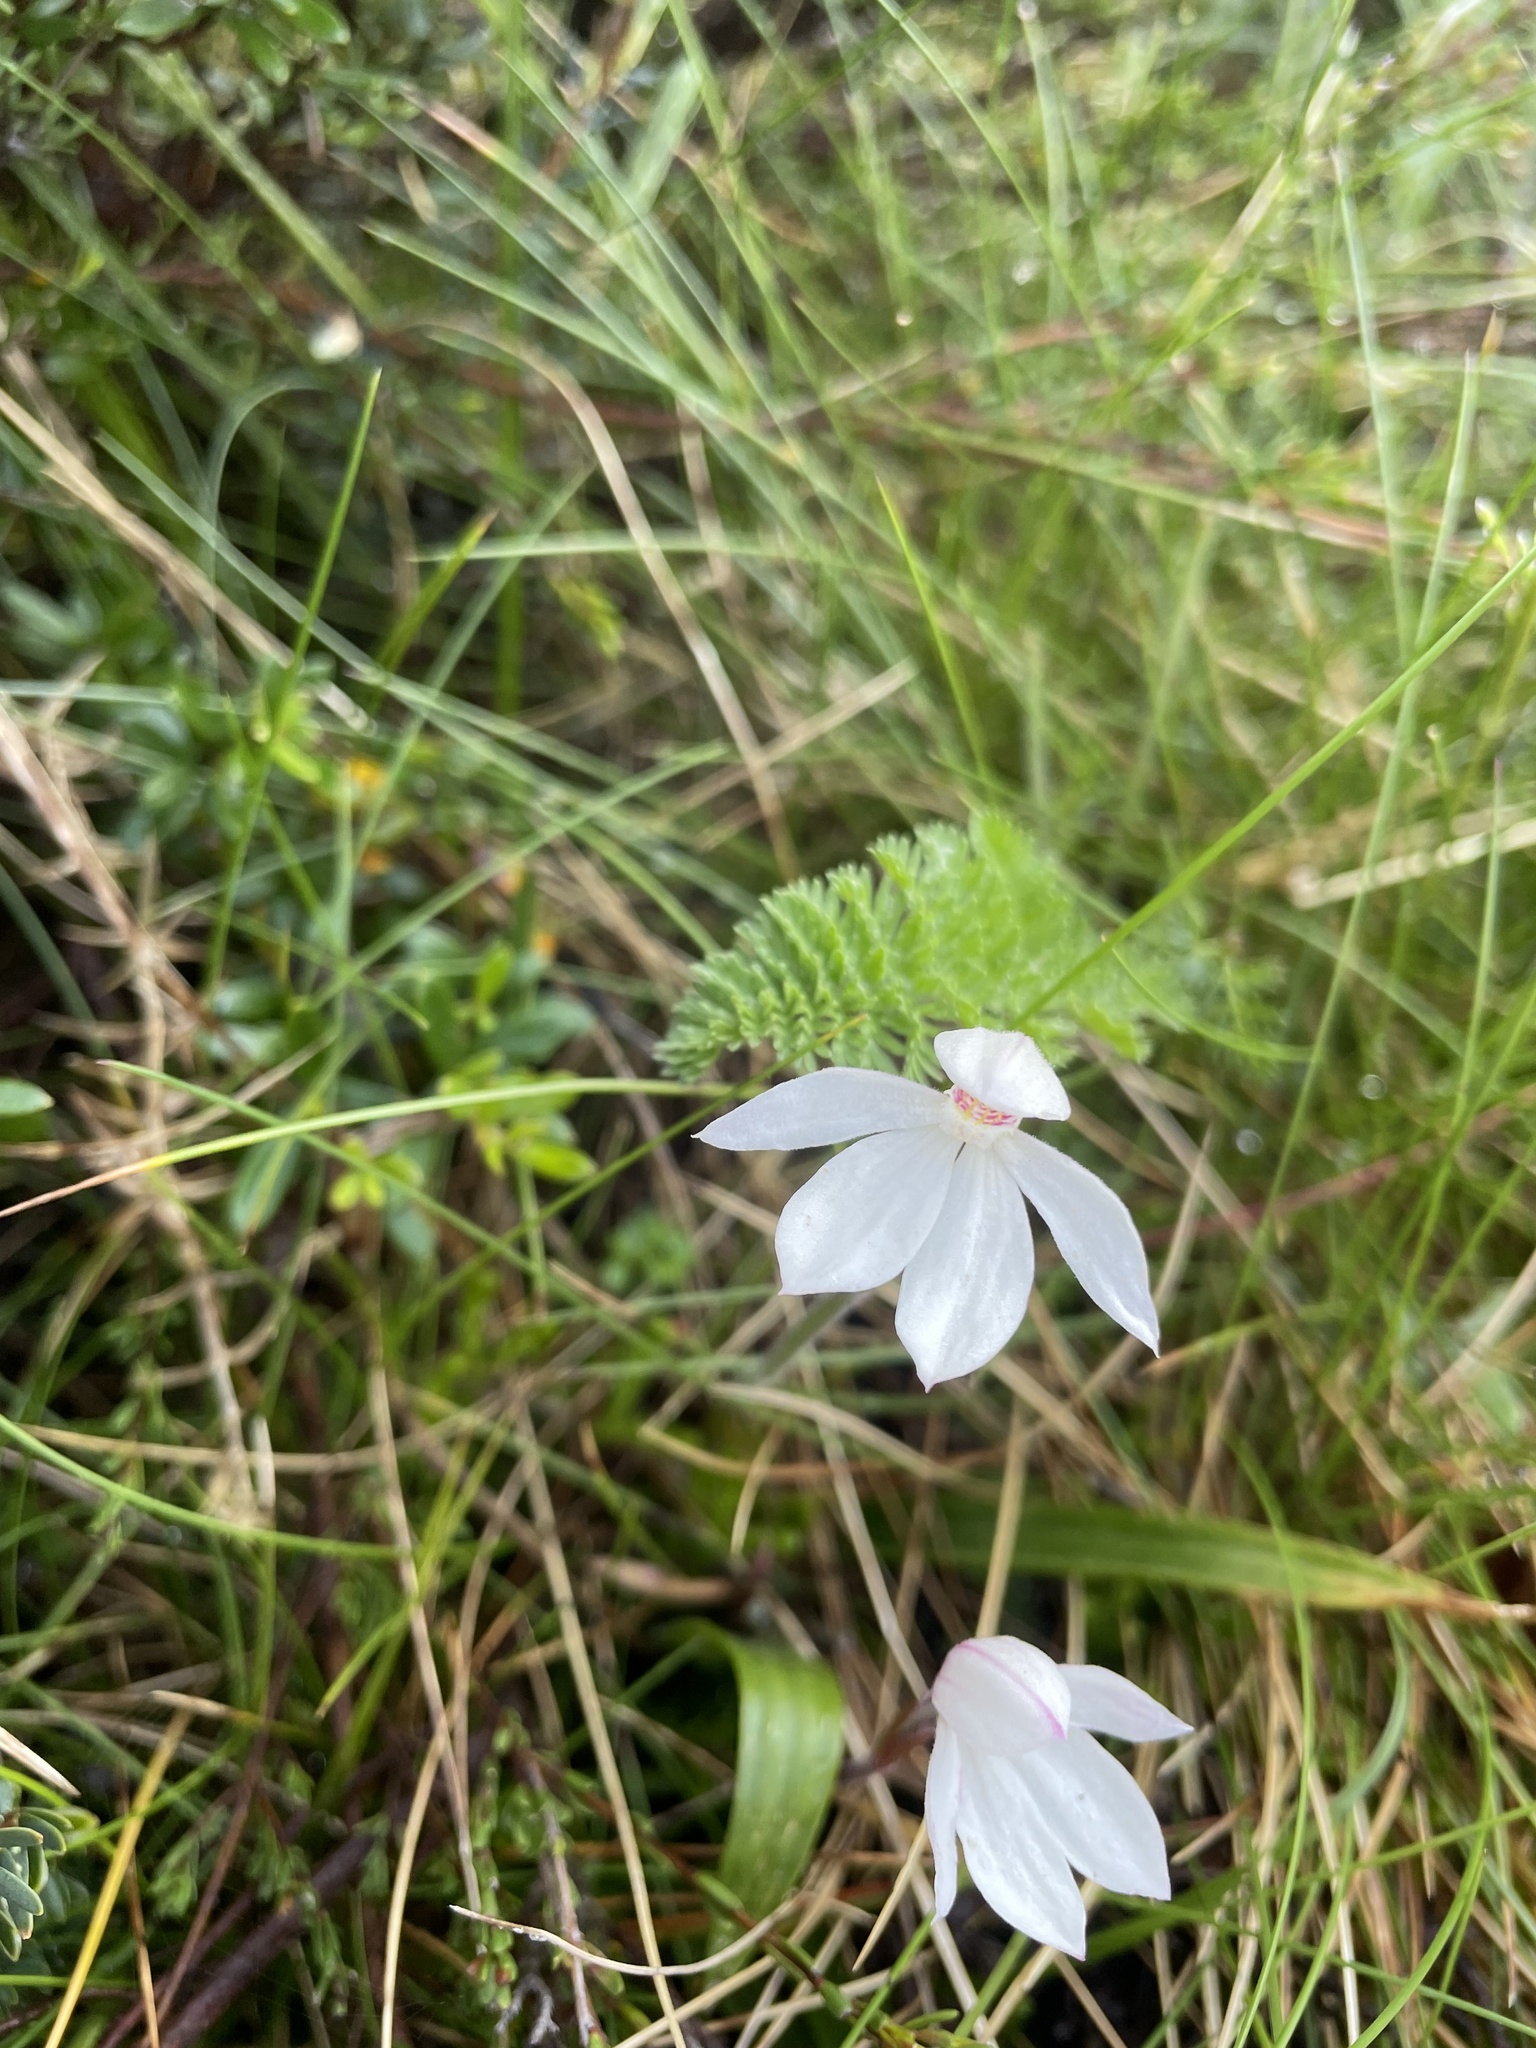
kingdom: Plantae
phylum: Tracheophyta
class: Liliopsida
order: Asparagales
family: Orchidaceae
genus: Caladenia
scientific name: Caladenia alpina
